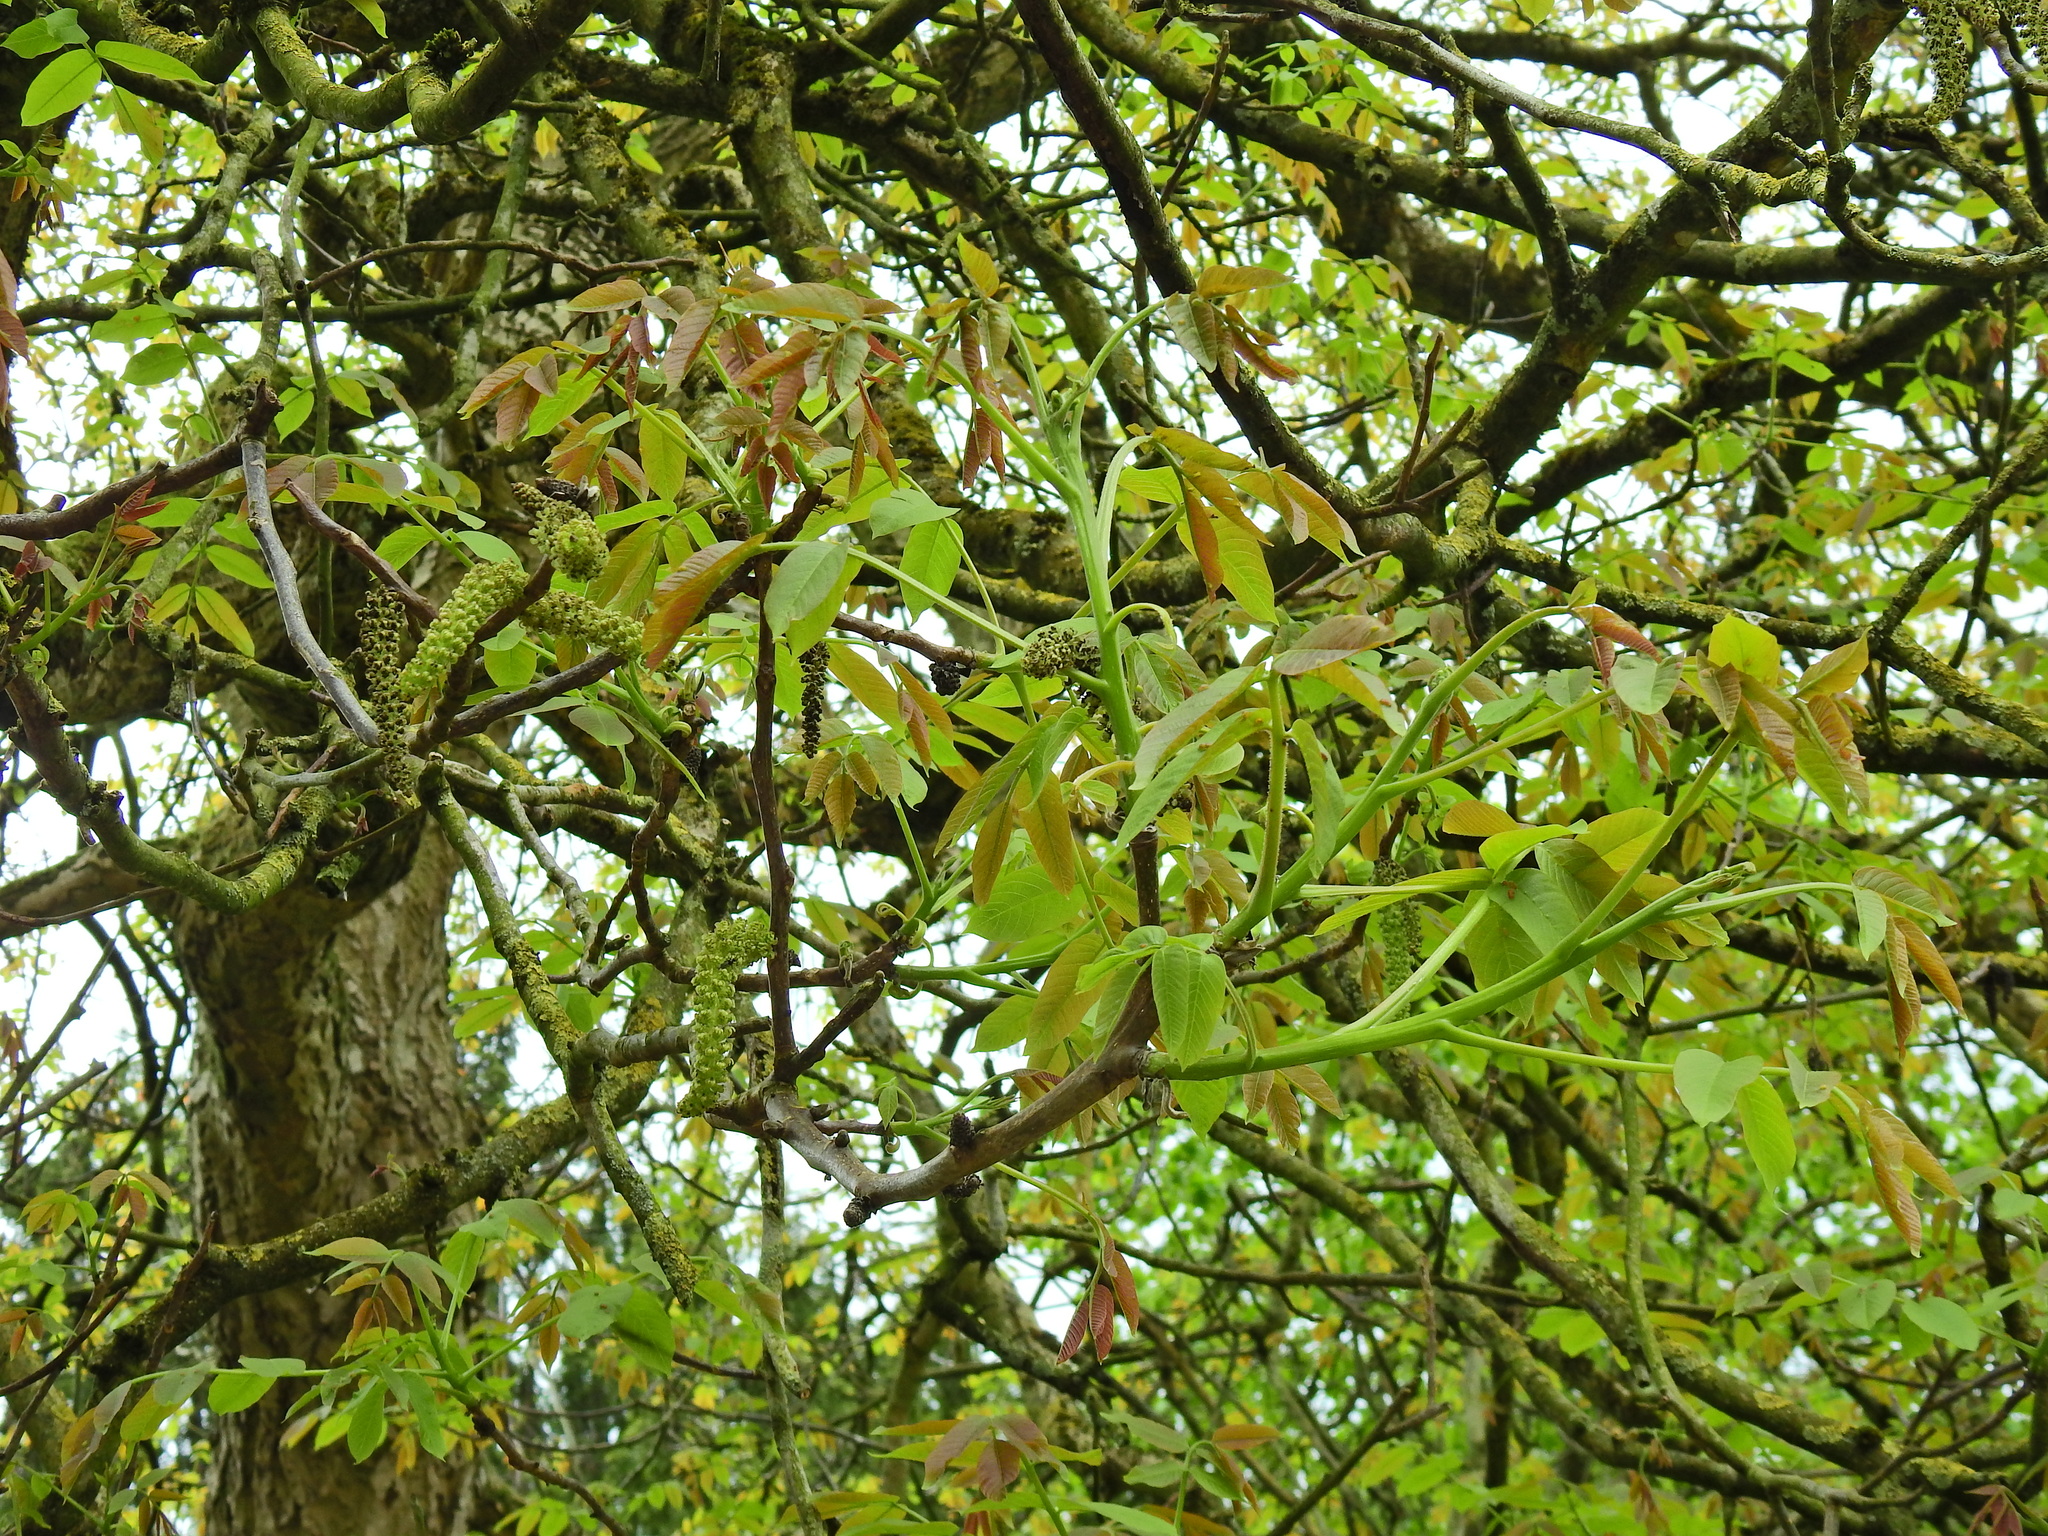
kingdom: Plantae
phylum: Tracheophyta
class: Magnoliopsida
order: Fagales
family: Juglandaceae
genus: Juglans
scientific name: Juglans regia
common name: Walnut
